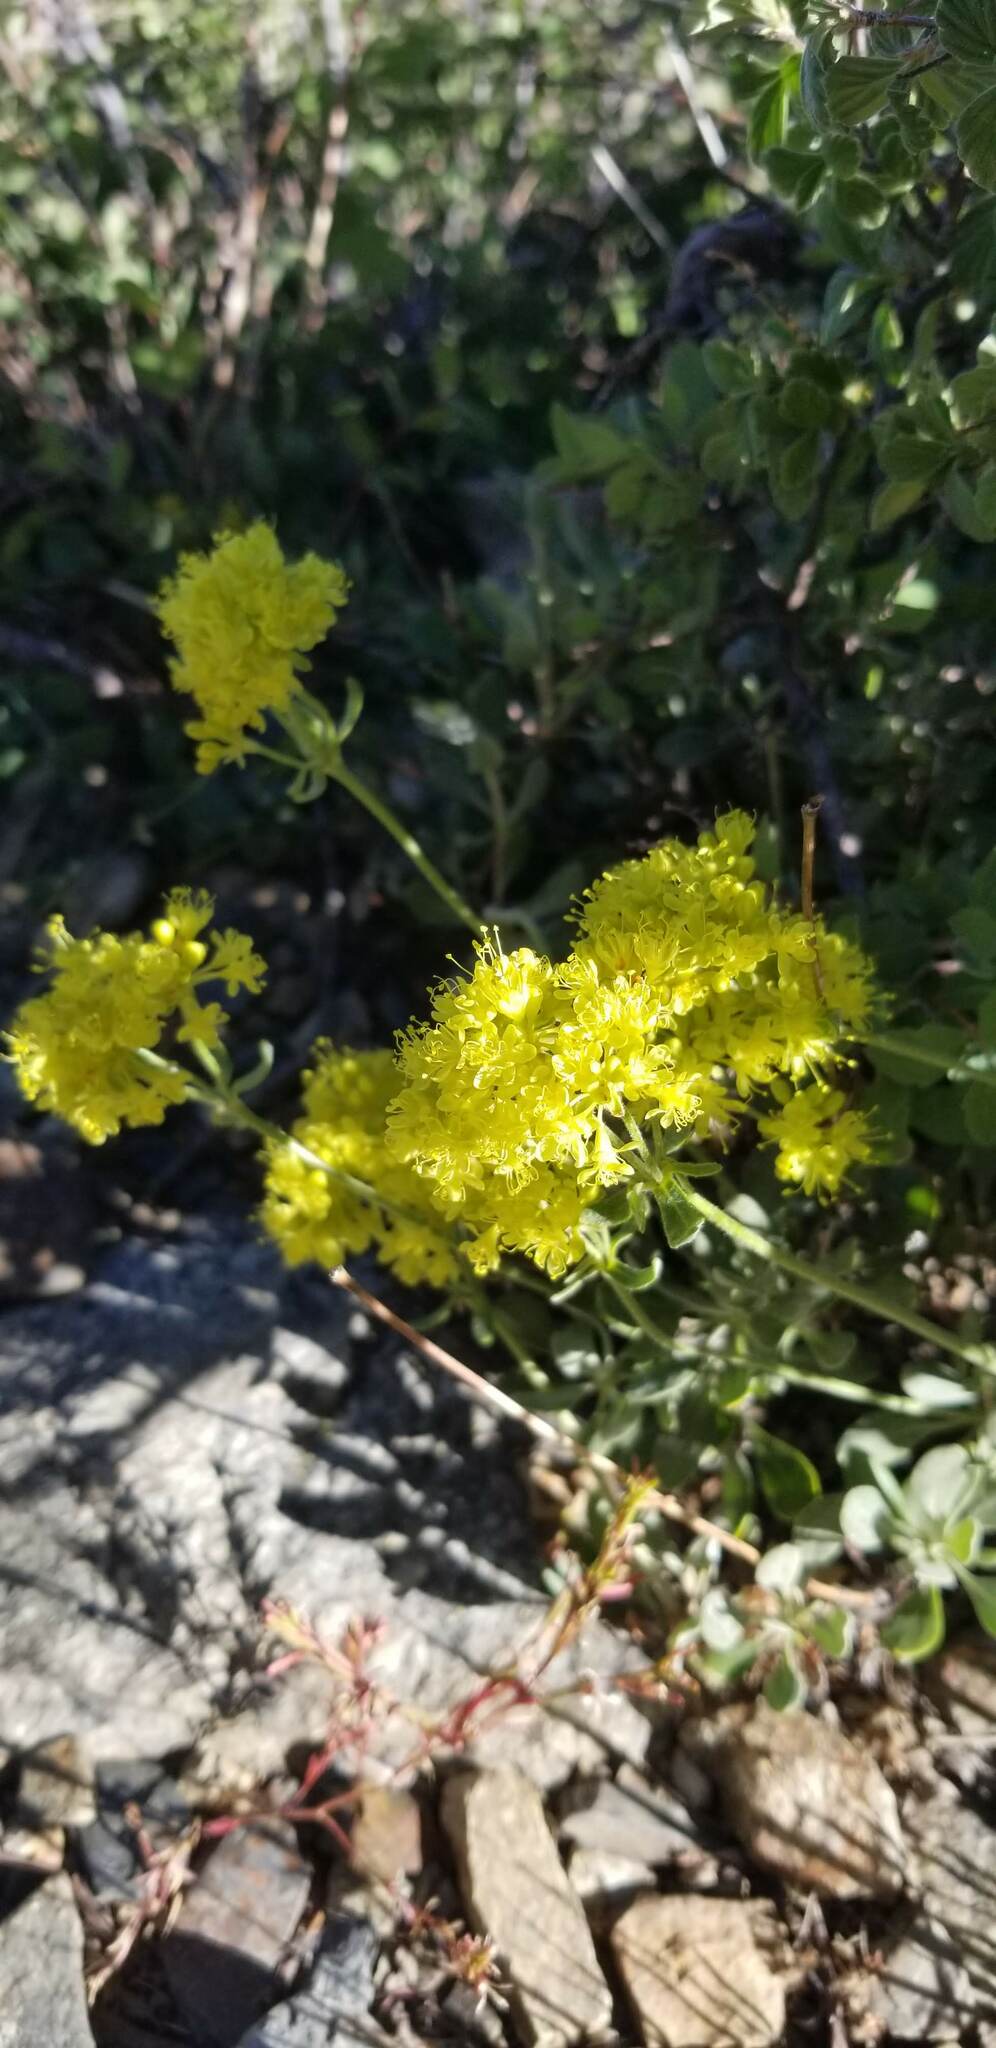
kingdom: Plantae
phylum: Tracheophyta
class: Magnoliopsida
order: Caryophyllales
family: Polygonaceae
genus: Eriogonum
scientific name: Eriogonum umbellatum
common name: Sulfur-buckwheat
